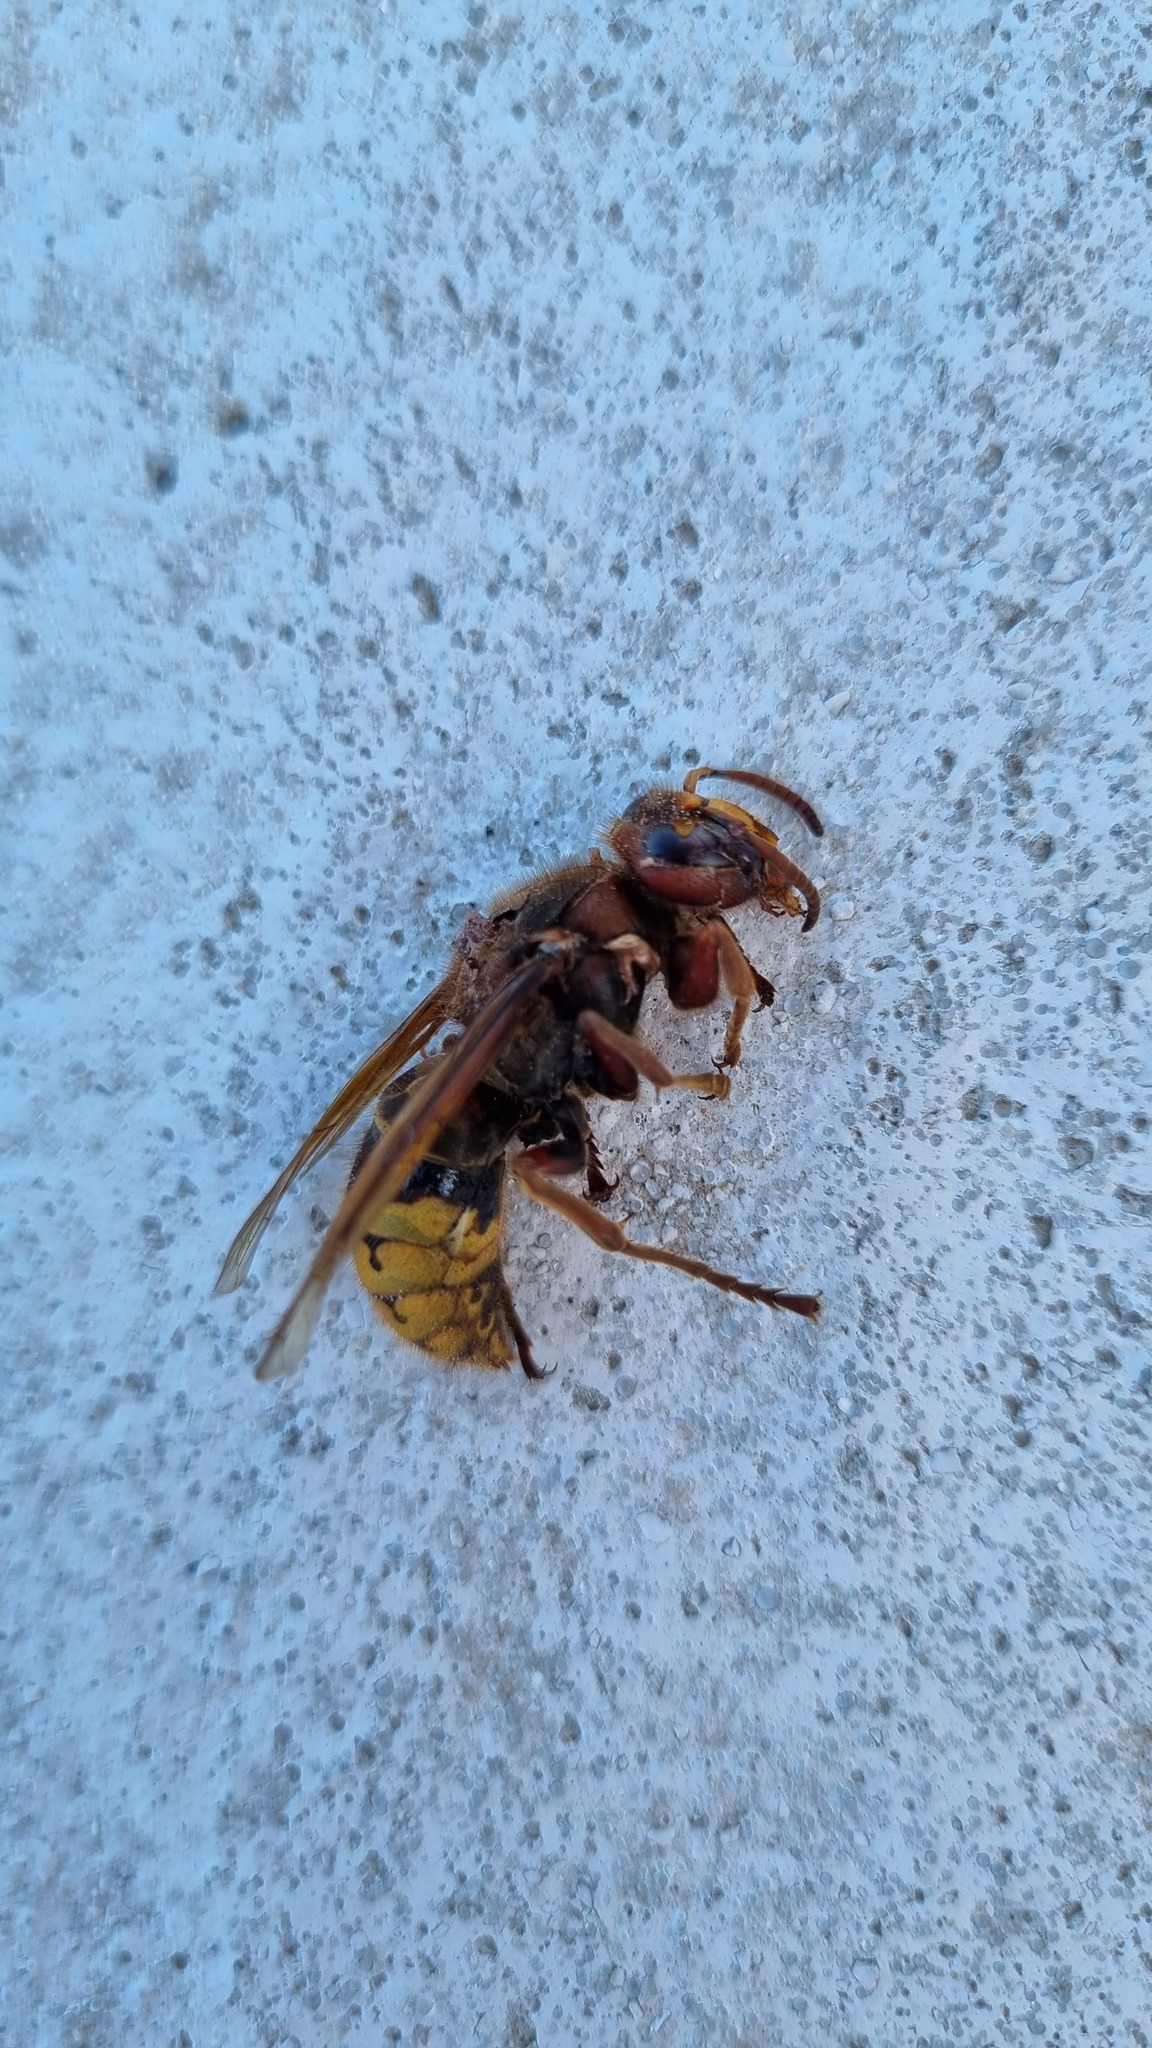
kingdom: Animalia
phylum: Arthropoda
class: Insecta
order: Hymenoptera
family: Vespidae
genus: Vespa
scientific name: Vespa crabro
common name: Hornet
